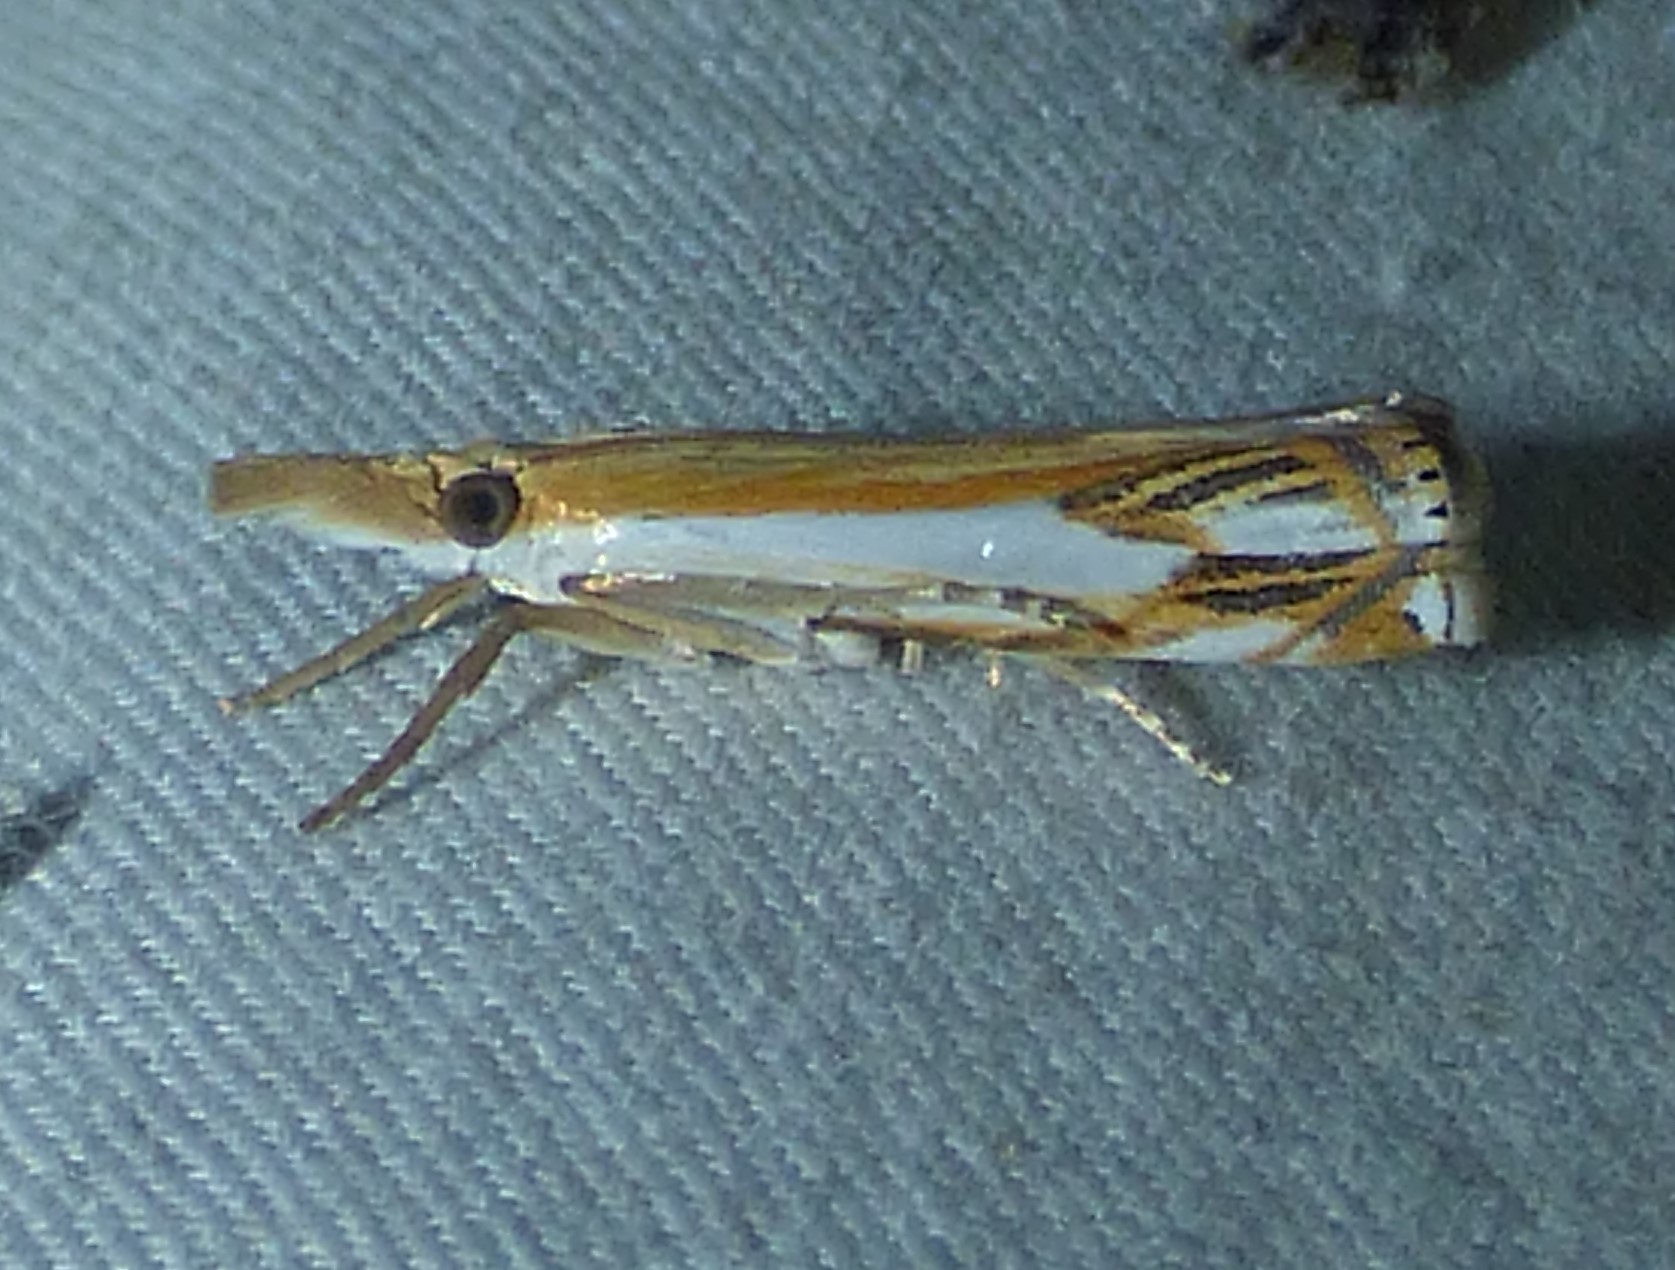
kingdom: Animalia
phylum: Arthropoda
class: Insecta
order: Lepidoptera
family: Crambidae
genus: Crambus
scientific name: Crambus agitatellus
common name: Double-banded grass-veneer
